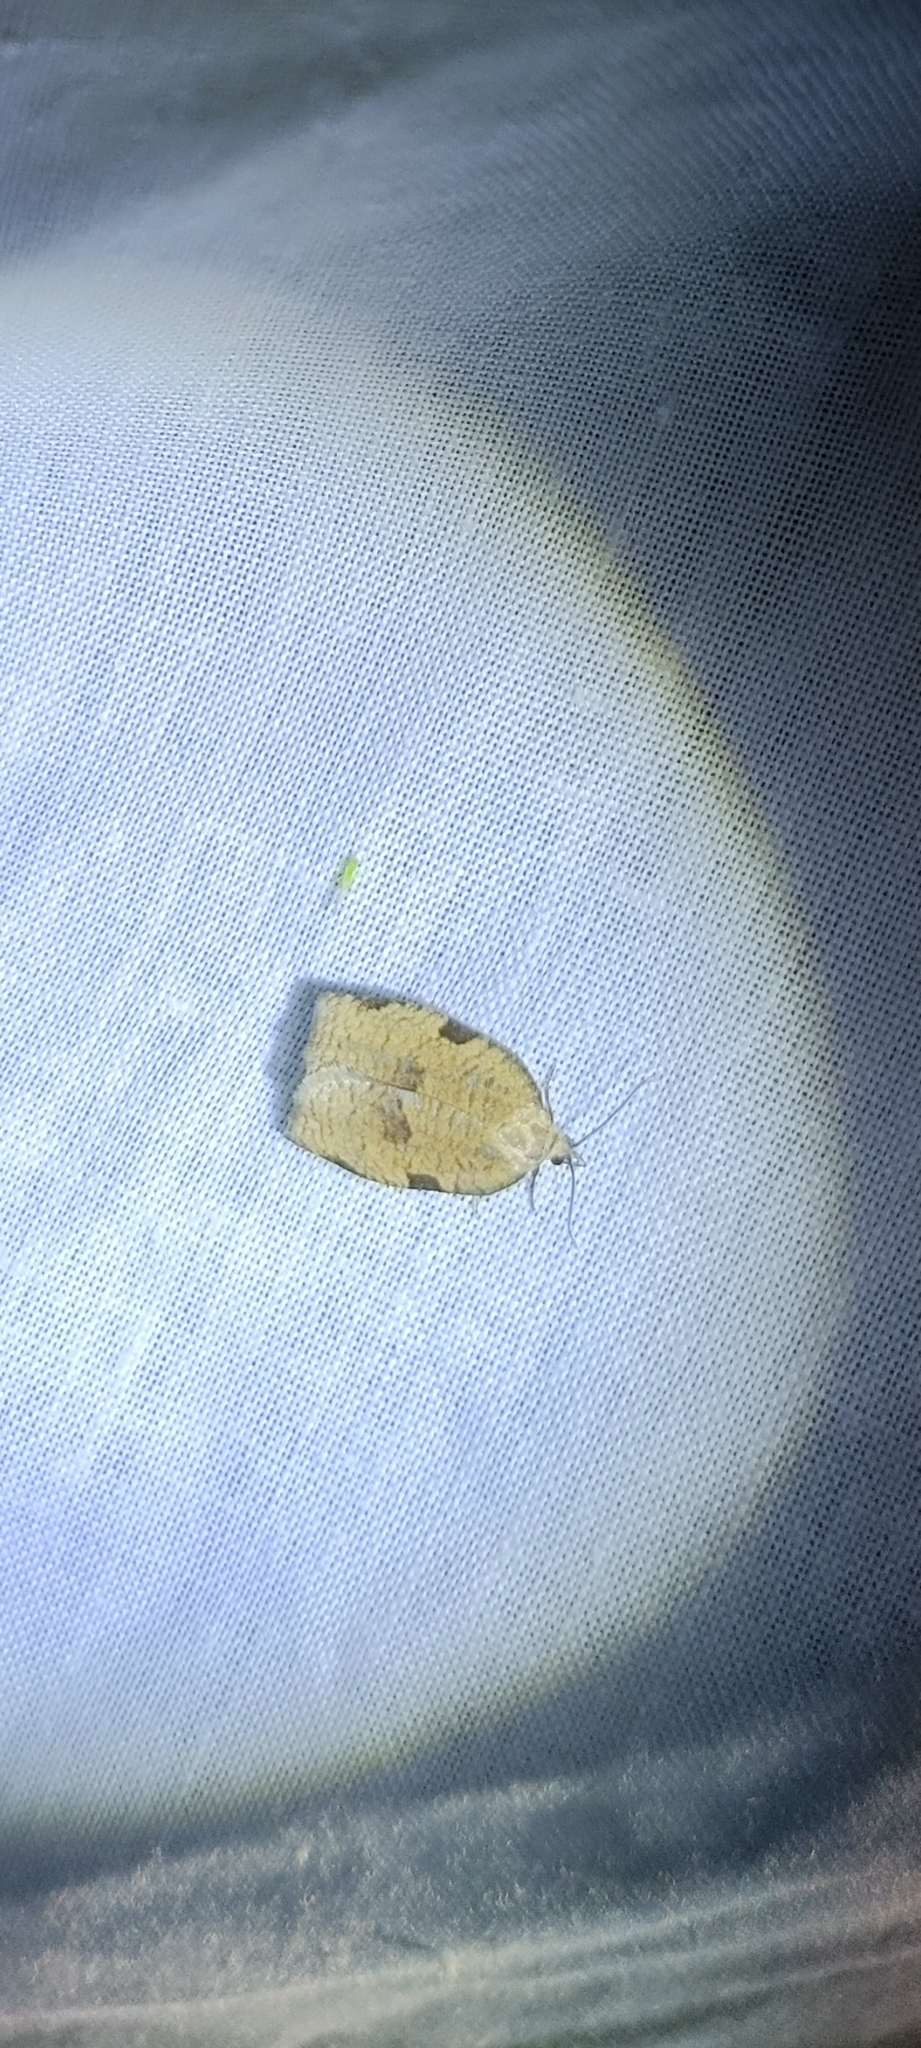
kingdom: Animalia
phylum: Arthropoda
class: Insecta
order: Lepidoptera
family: Tortricidae
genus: Lozotaenia
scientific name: Lozotaenia forsterana
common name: Large ivy twist
